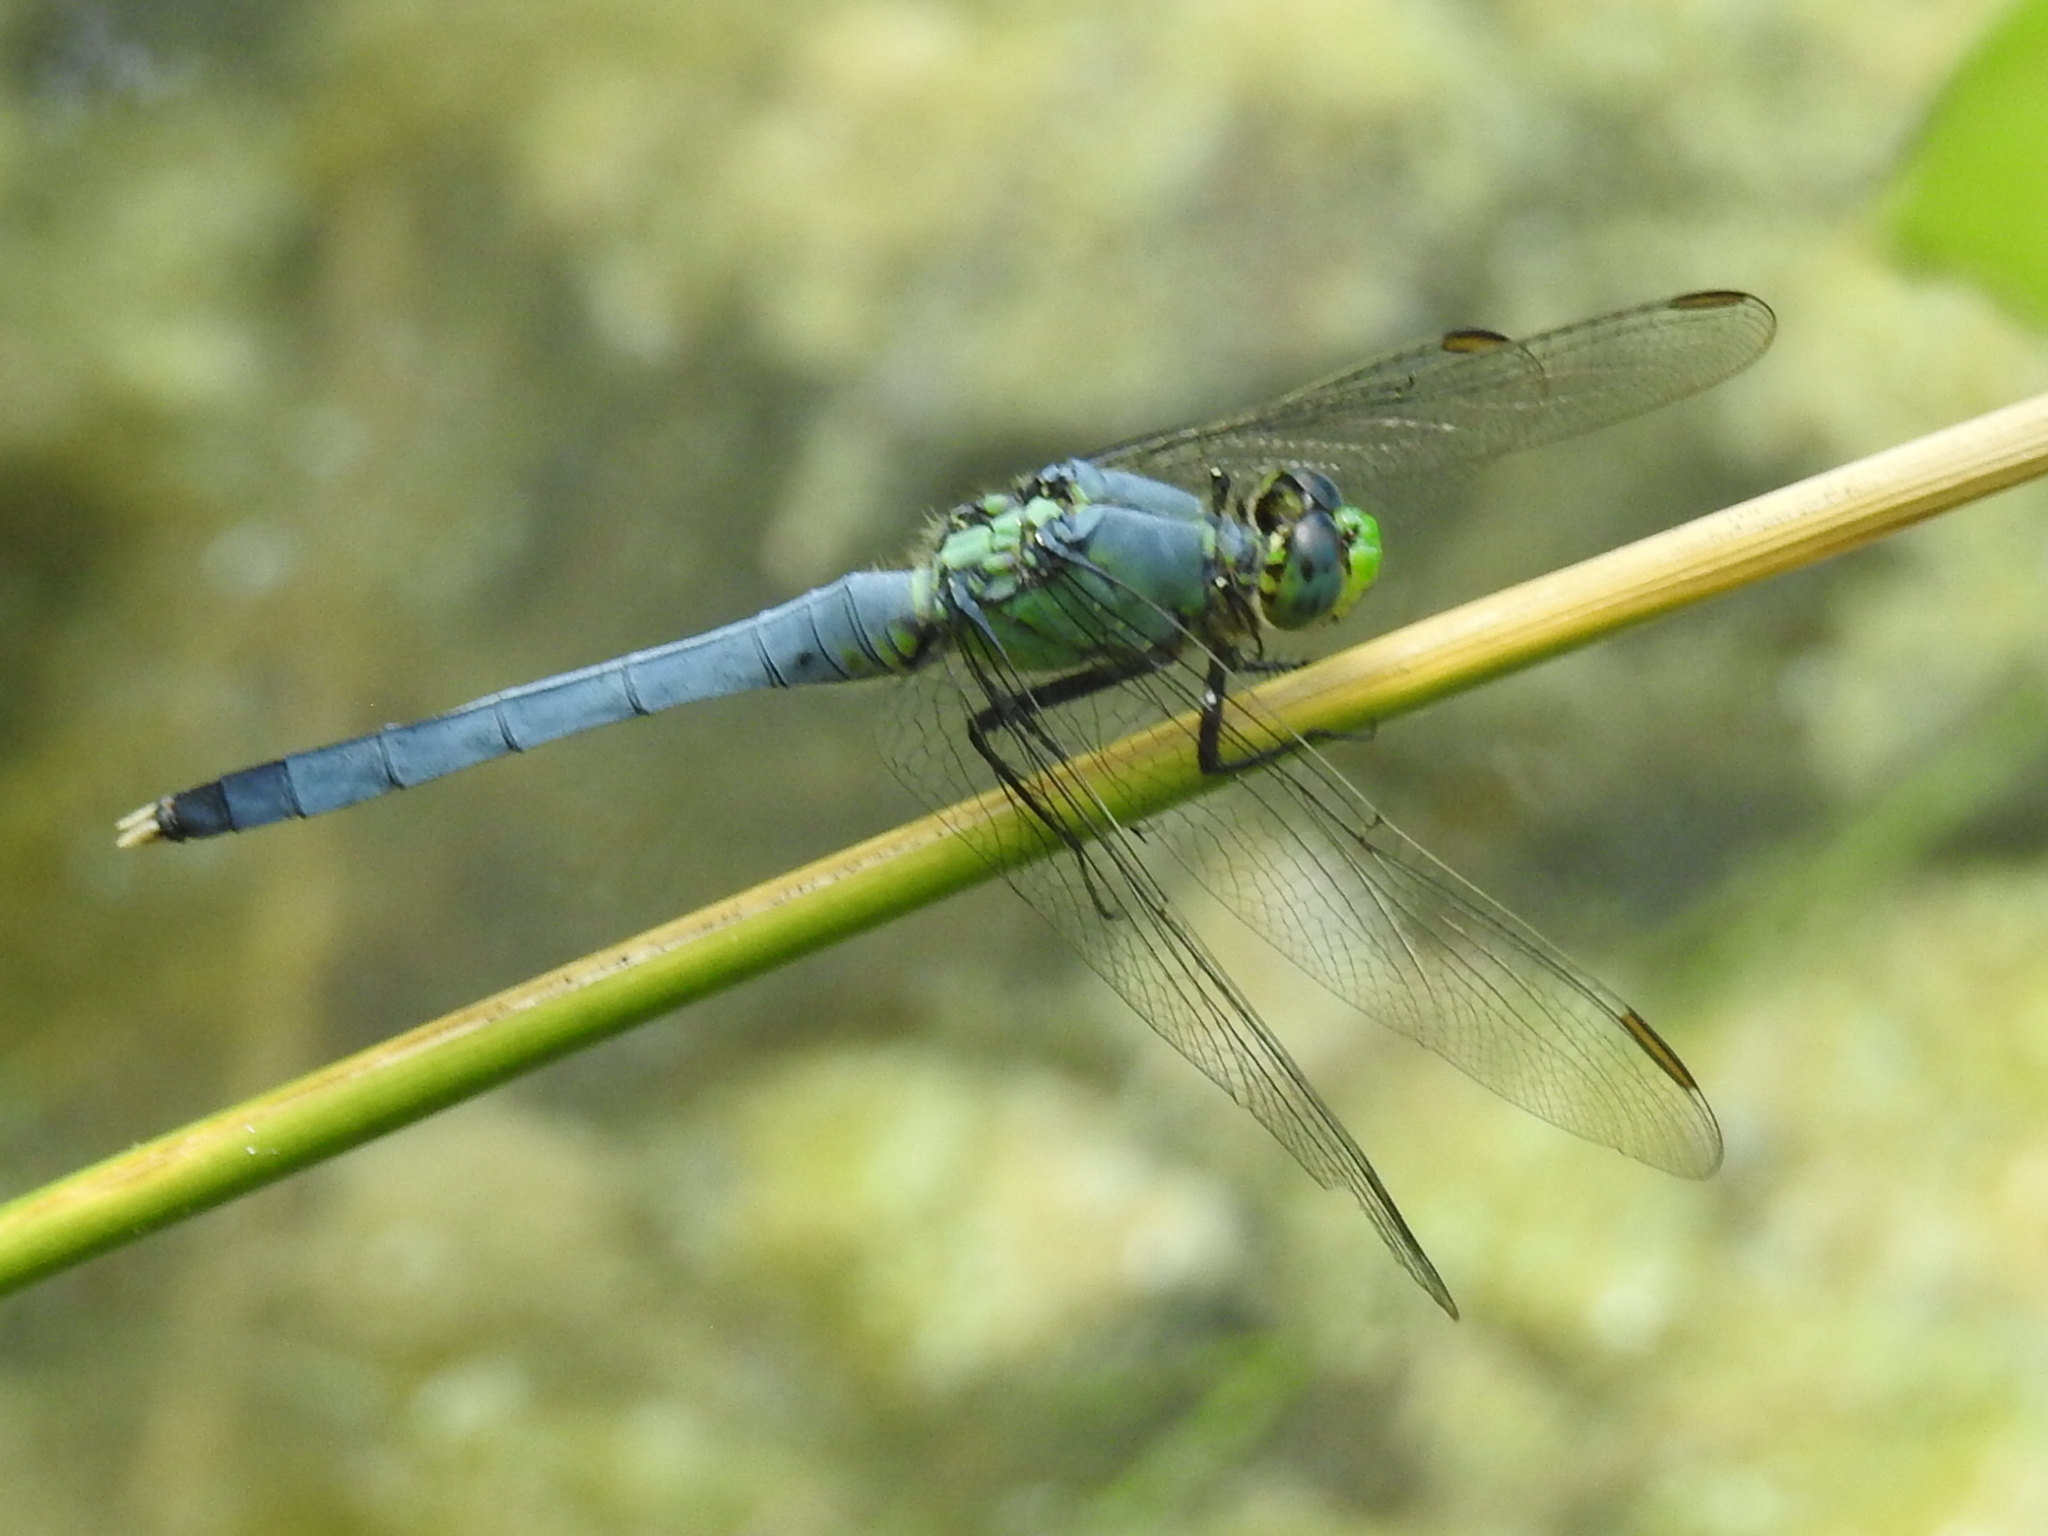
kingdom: Animalia
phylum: Arthropoda
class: Insecta
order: Odonata
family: Libellulidae
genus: Erythemis
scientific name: Erythemis simplicicollis
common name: Eastern pondhawk
